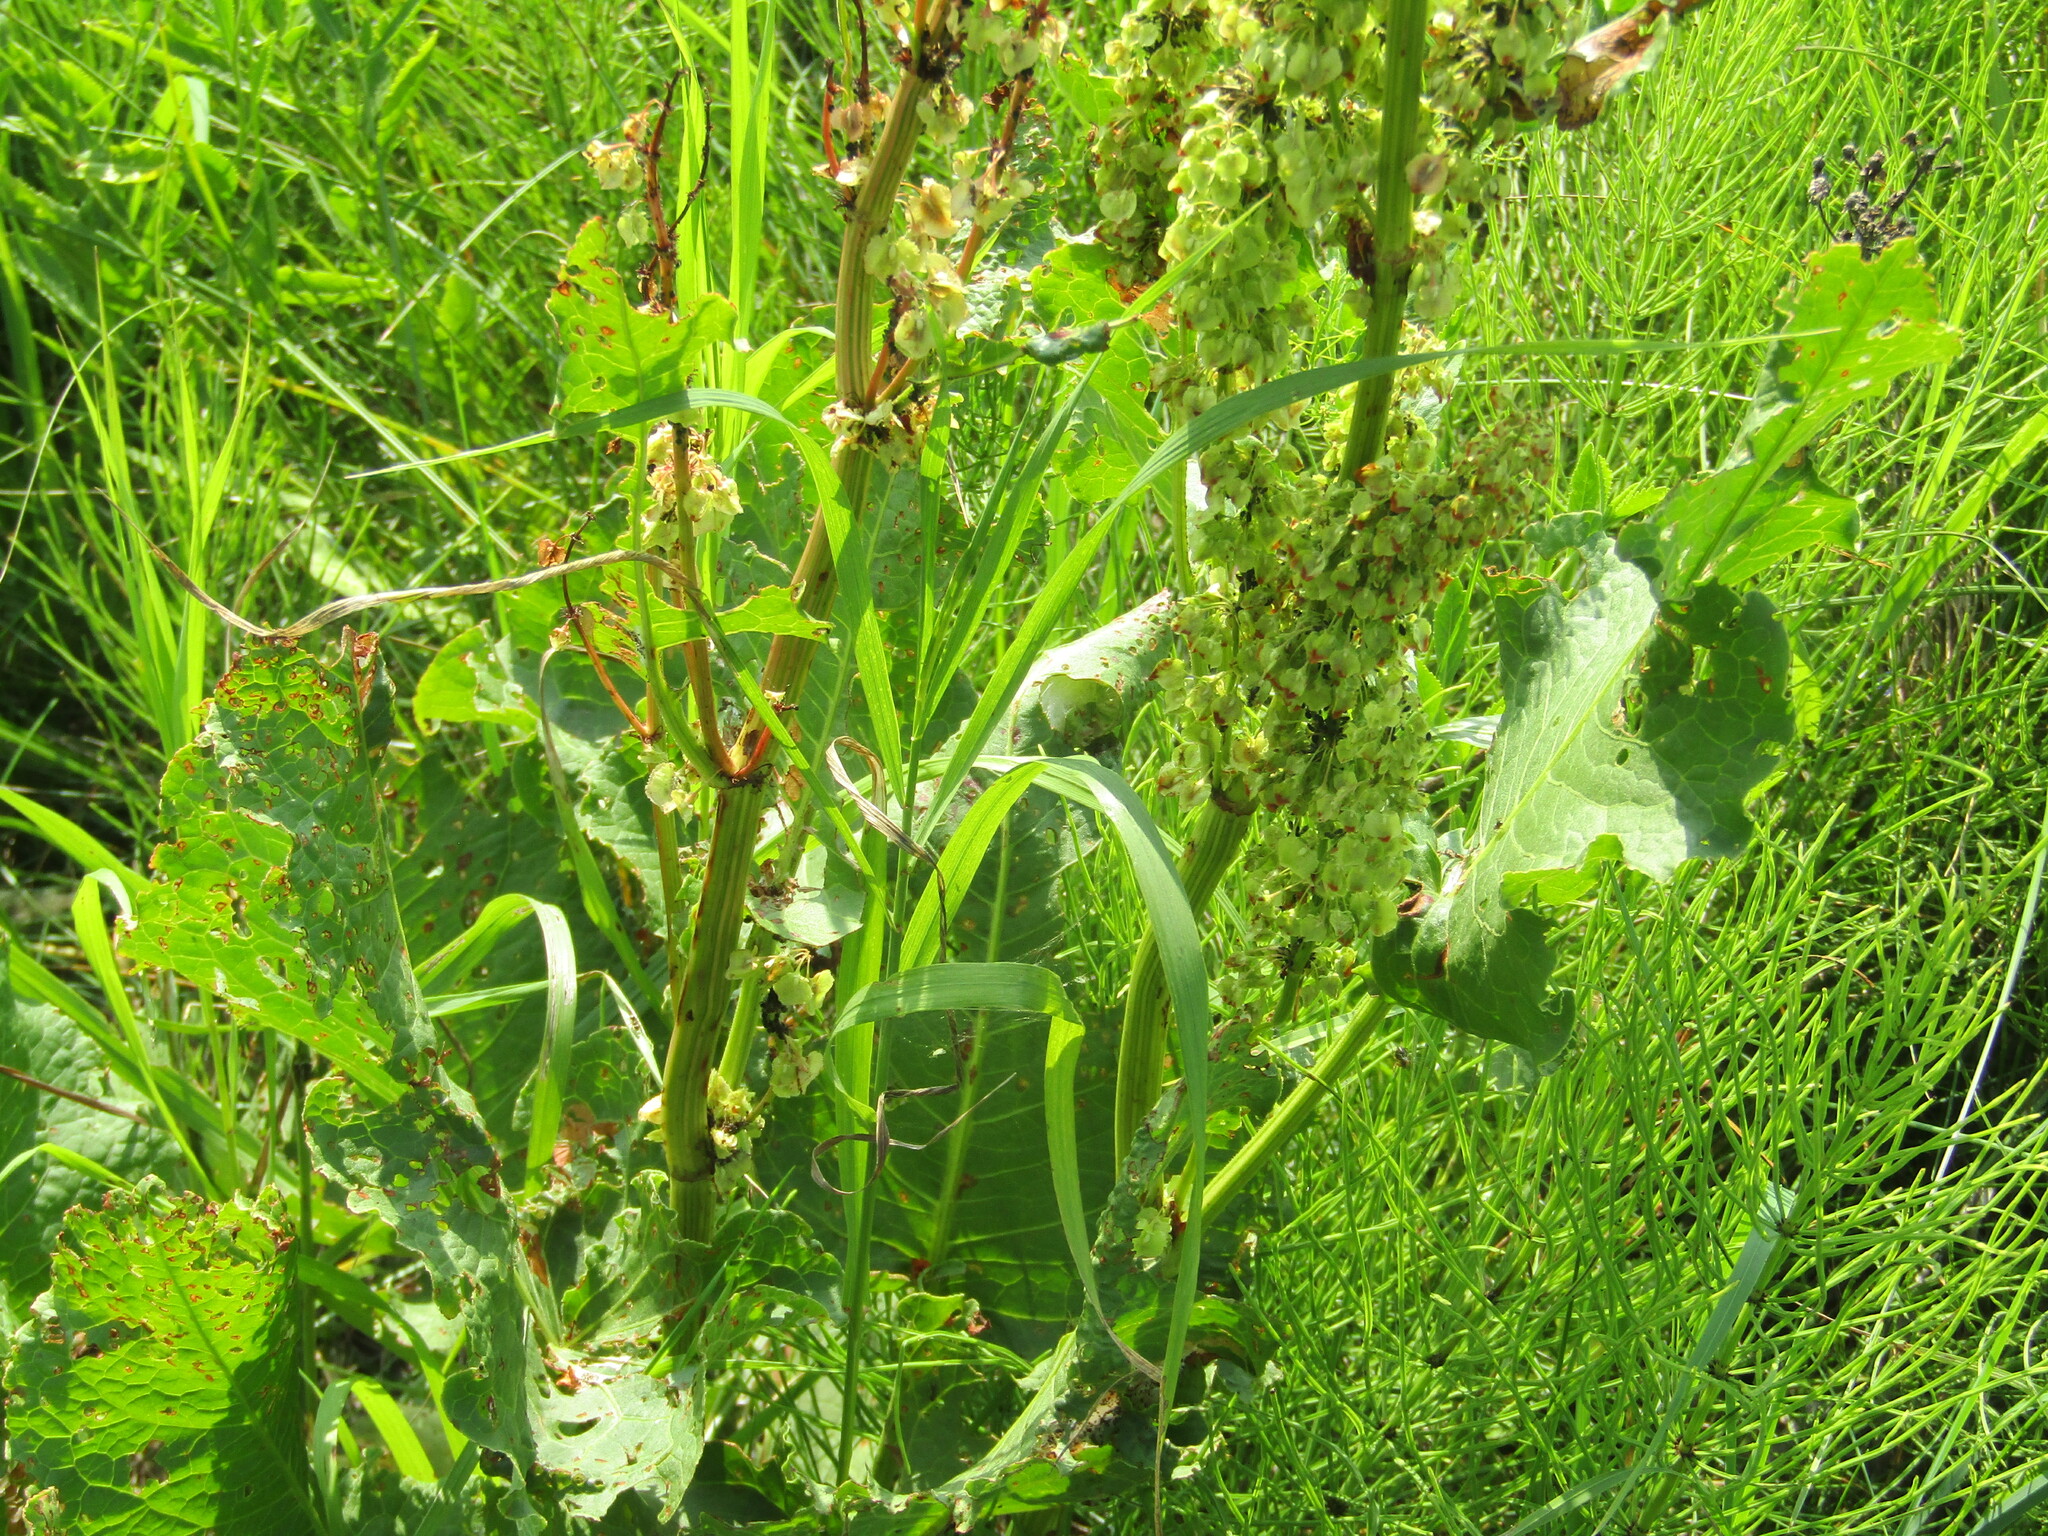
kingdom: Plantae
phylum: Tracheophyta
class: Magnoliopsida
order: Caryophyllales
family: Polygonaceae
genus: Rumex
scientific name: Rumex confertus
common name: Russian dock
